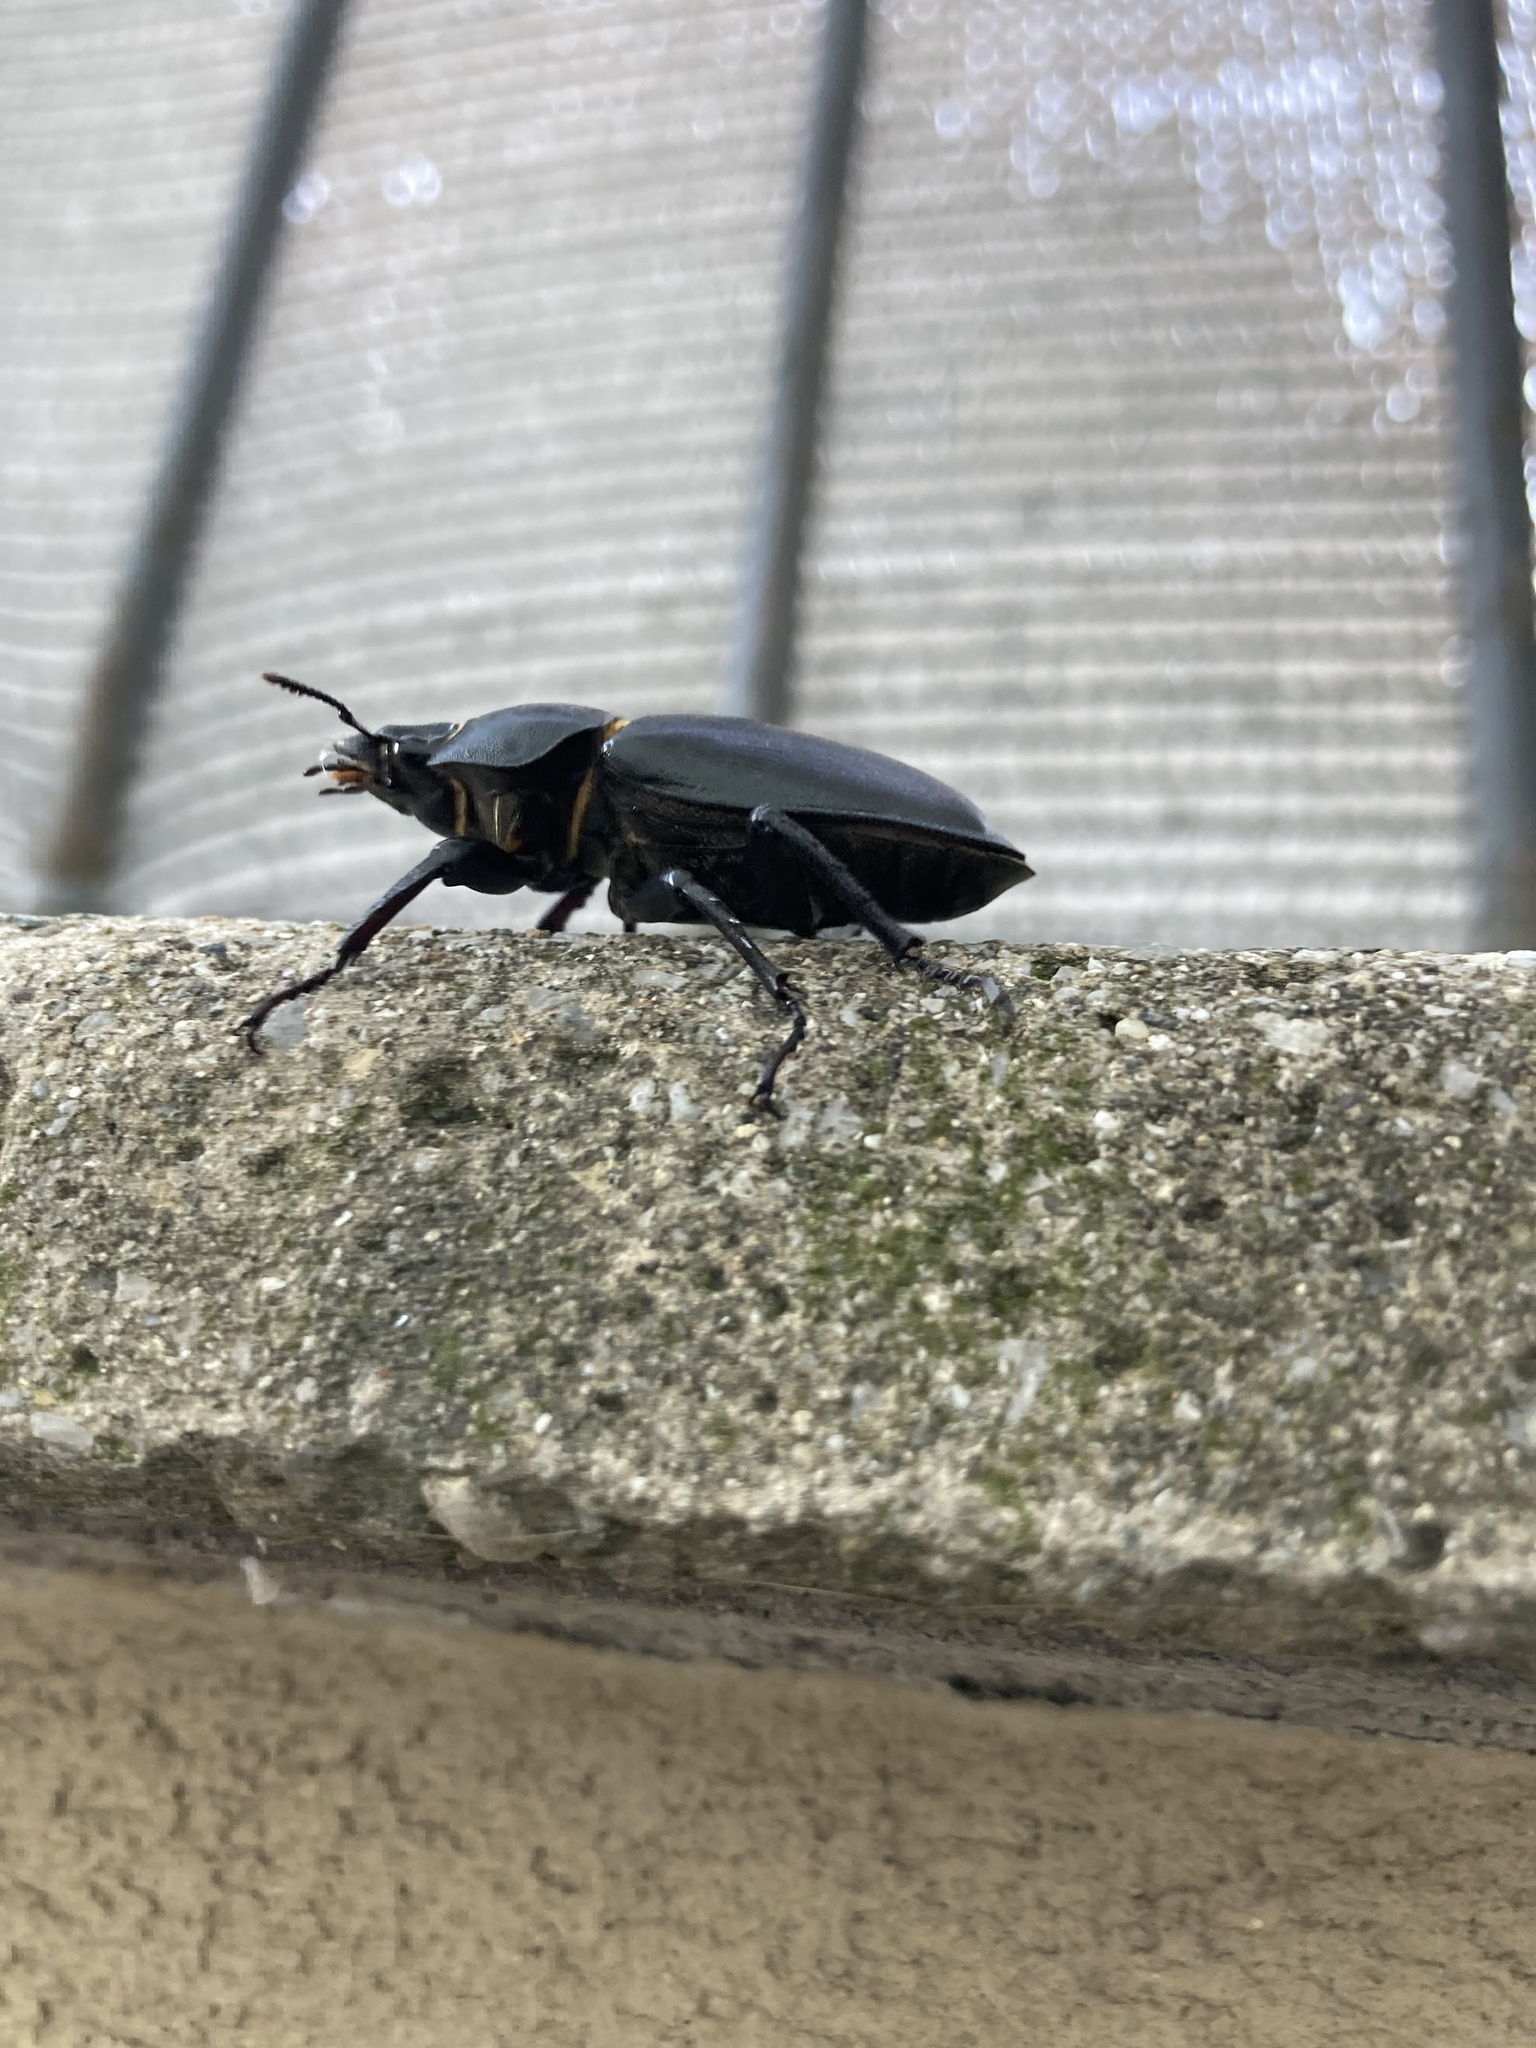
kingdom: Animalia
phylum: Arthropoda
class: Insecta
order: Coleoptera
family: Lucanidae
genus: Lucanus
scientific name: Lucanus cervus
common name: Stag beetle
